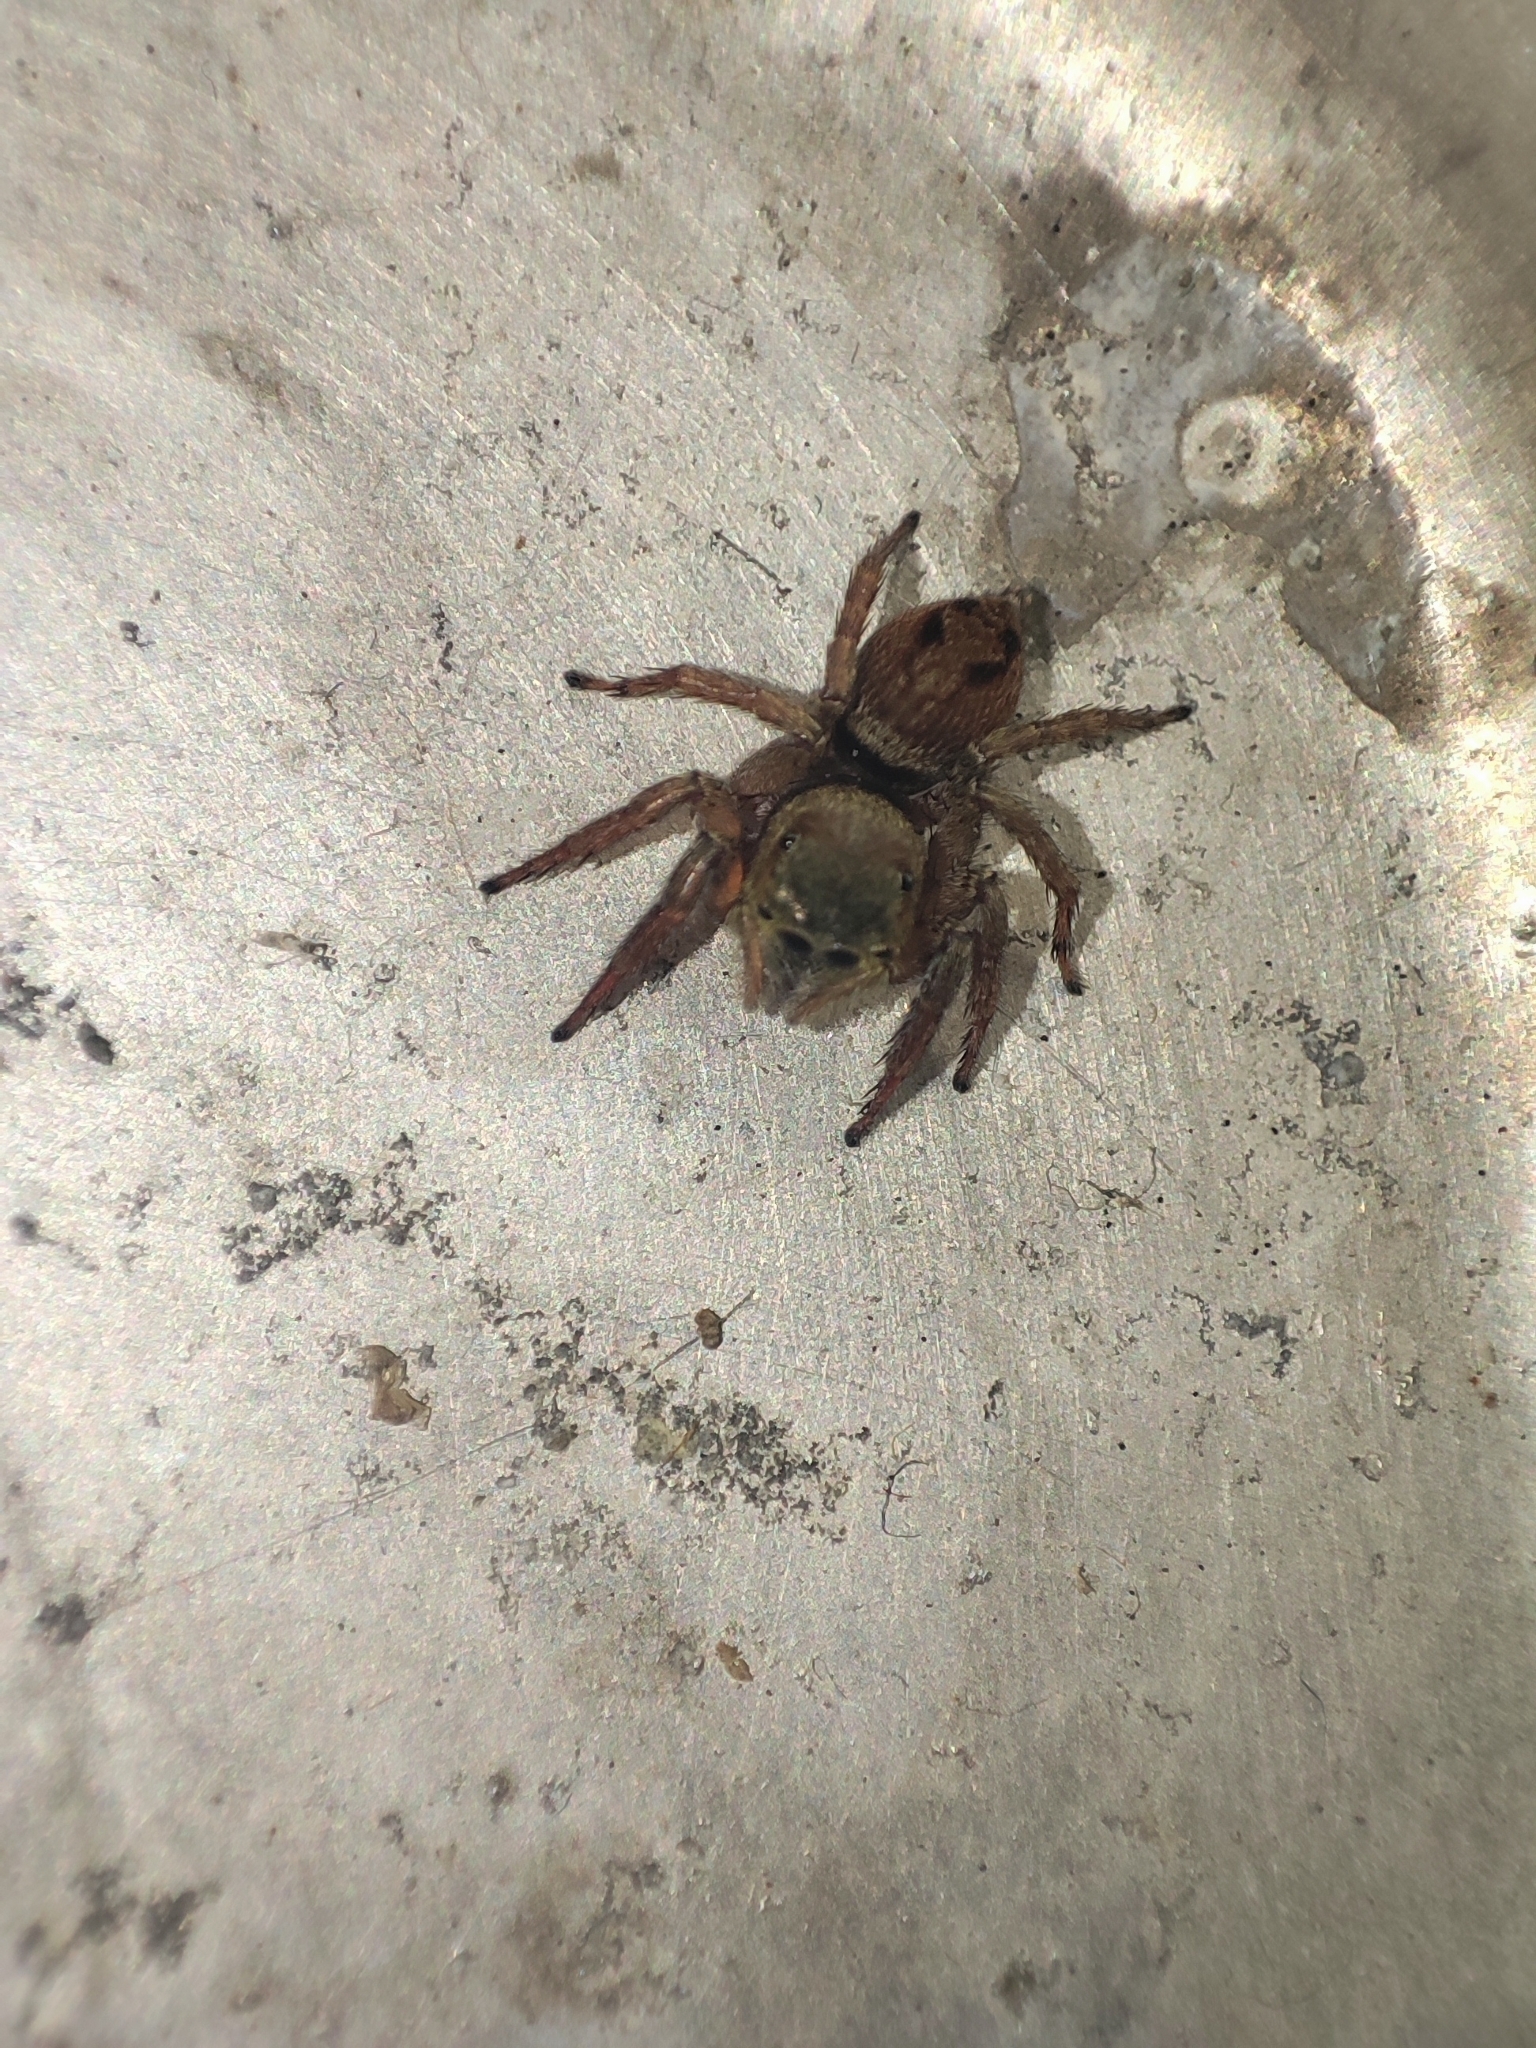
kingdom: Animalia
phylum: Arthropoda
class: Arachnida
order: Araneae
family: Salticidae
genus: Hasarius
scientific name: Hasarius adansoni
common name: Jumping spider
